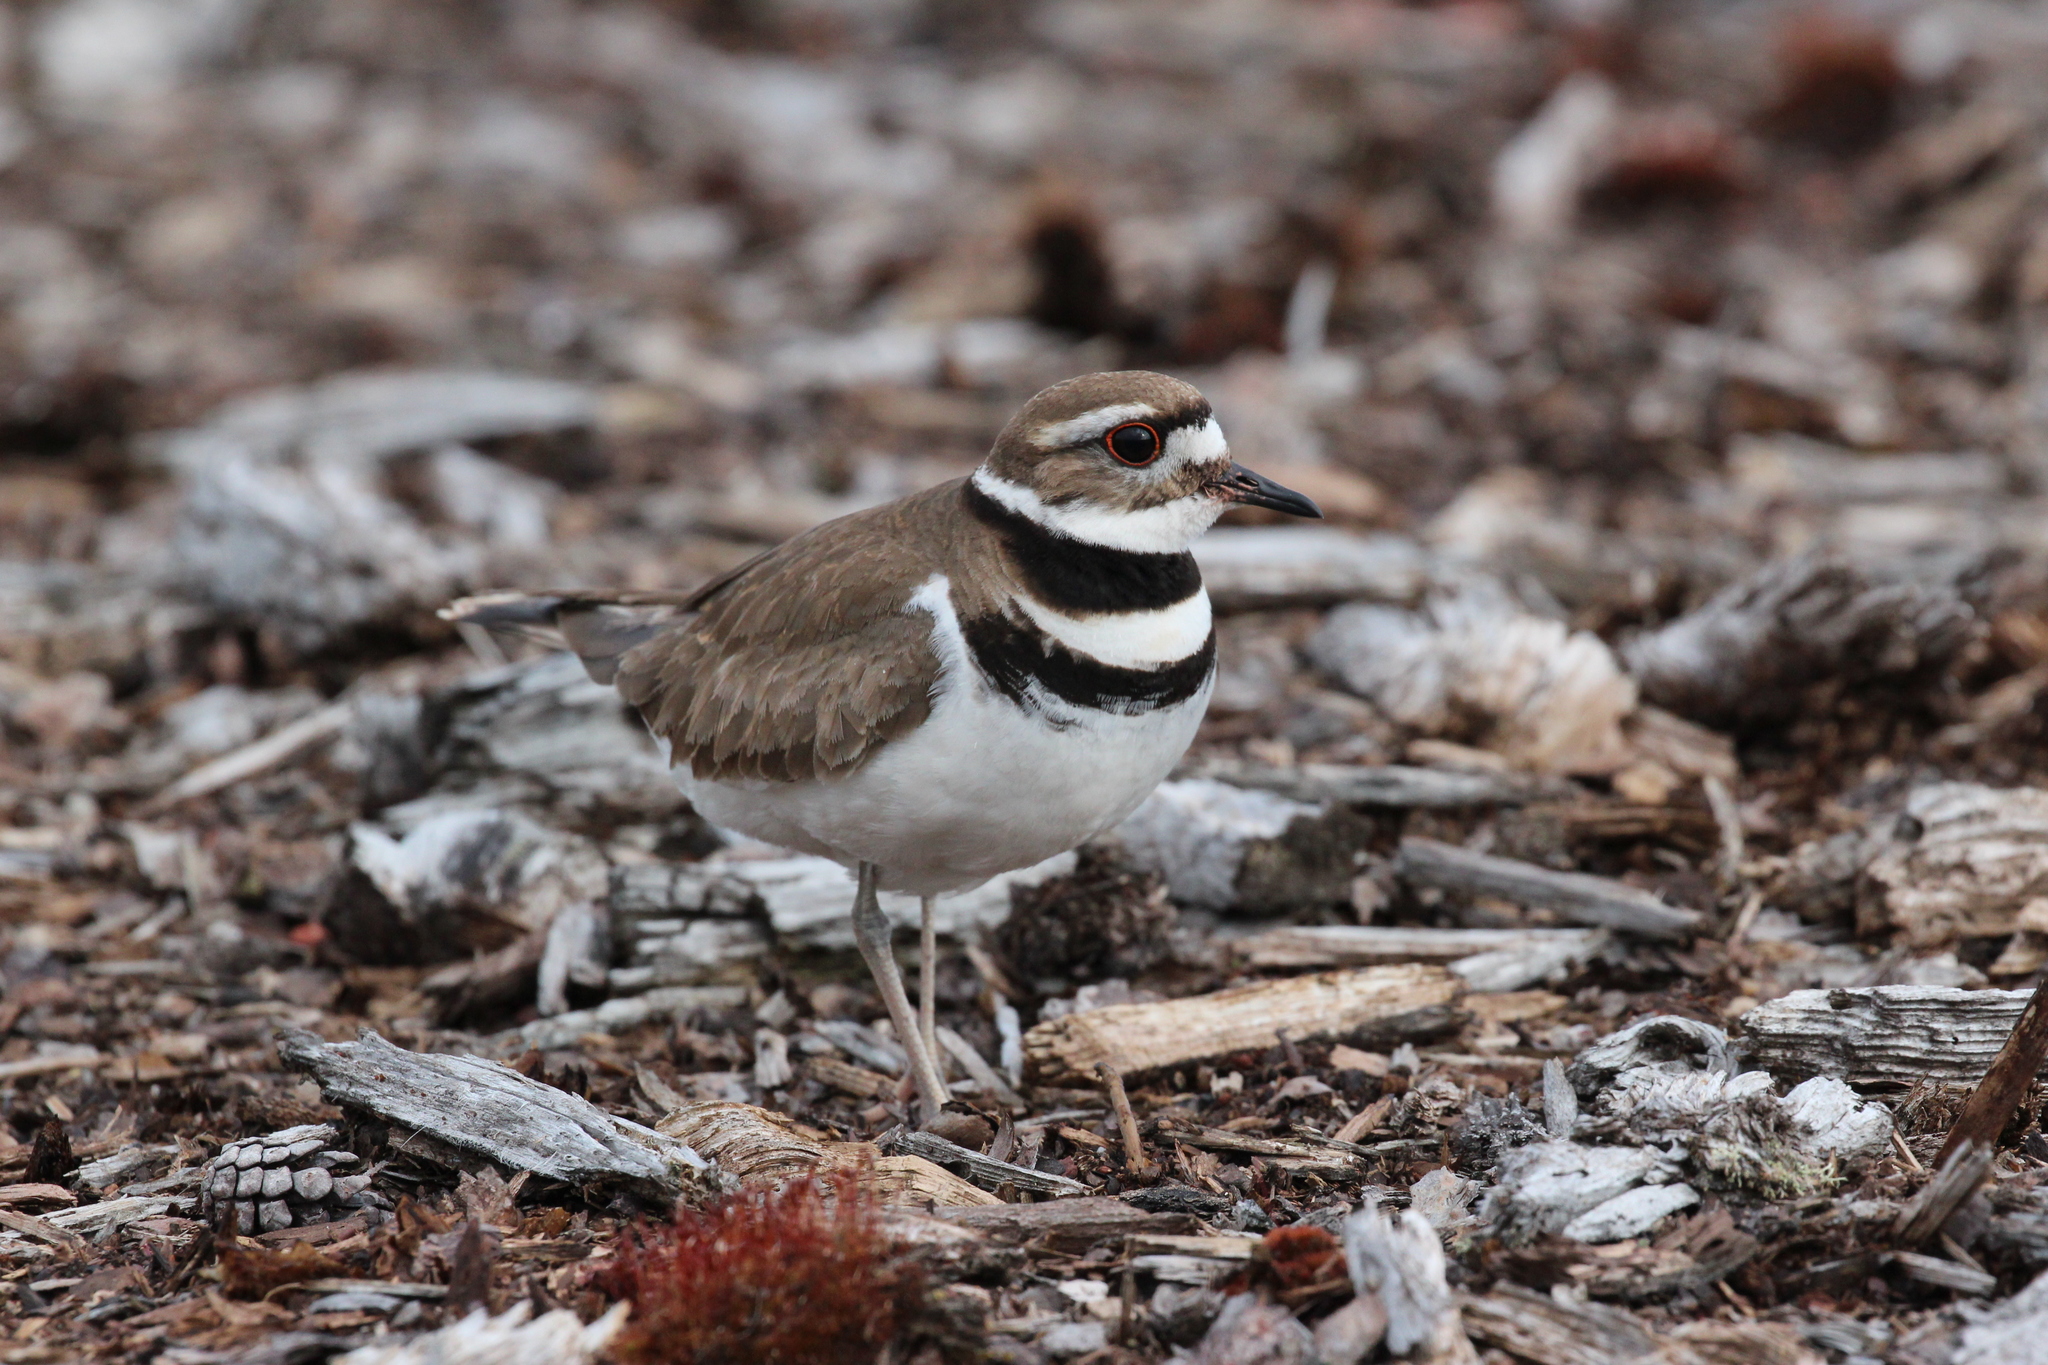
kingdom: Animalia
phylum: Chordata
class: Aves
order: Charadriiformes
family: Charadriidae
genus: Charadrius
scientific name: Charadrius vociferus
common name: Killdeer
